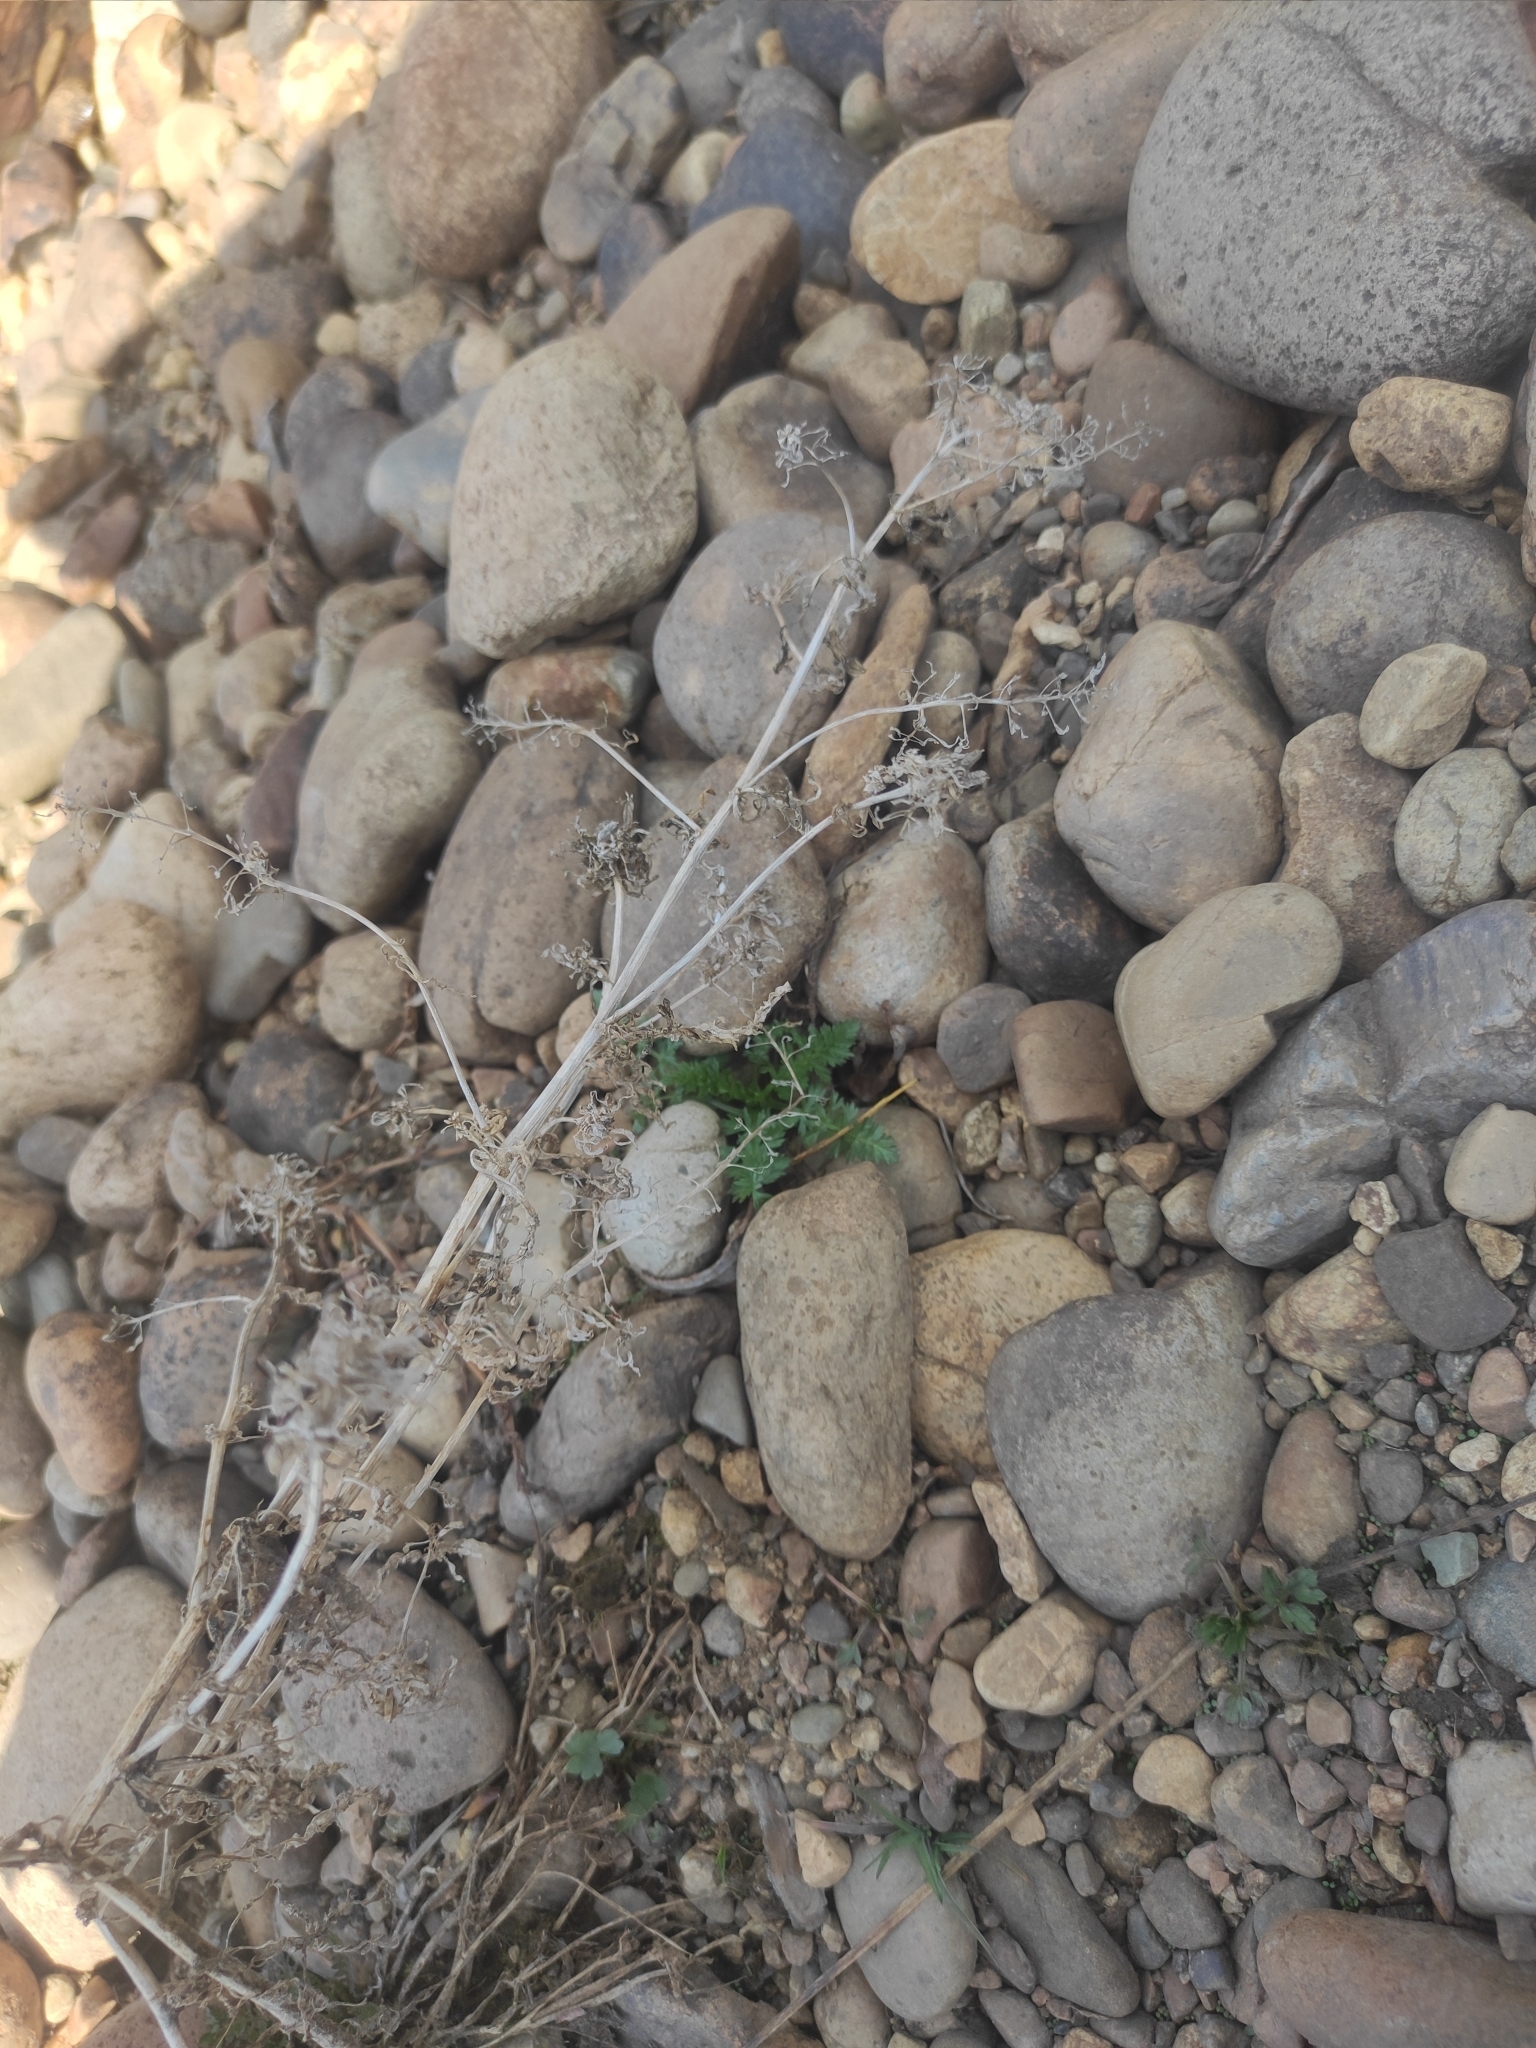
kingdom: Plantae
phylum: Tracheophyta
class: Magnoliopsida
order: Brassicales
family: Brassicaceae
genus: Rorippa
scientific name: Rorippa palustris
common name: Marsh yellow-cress
